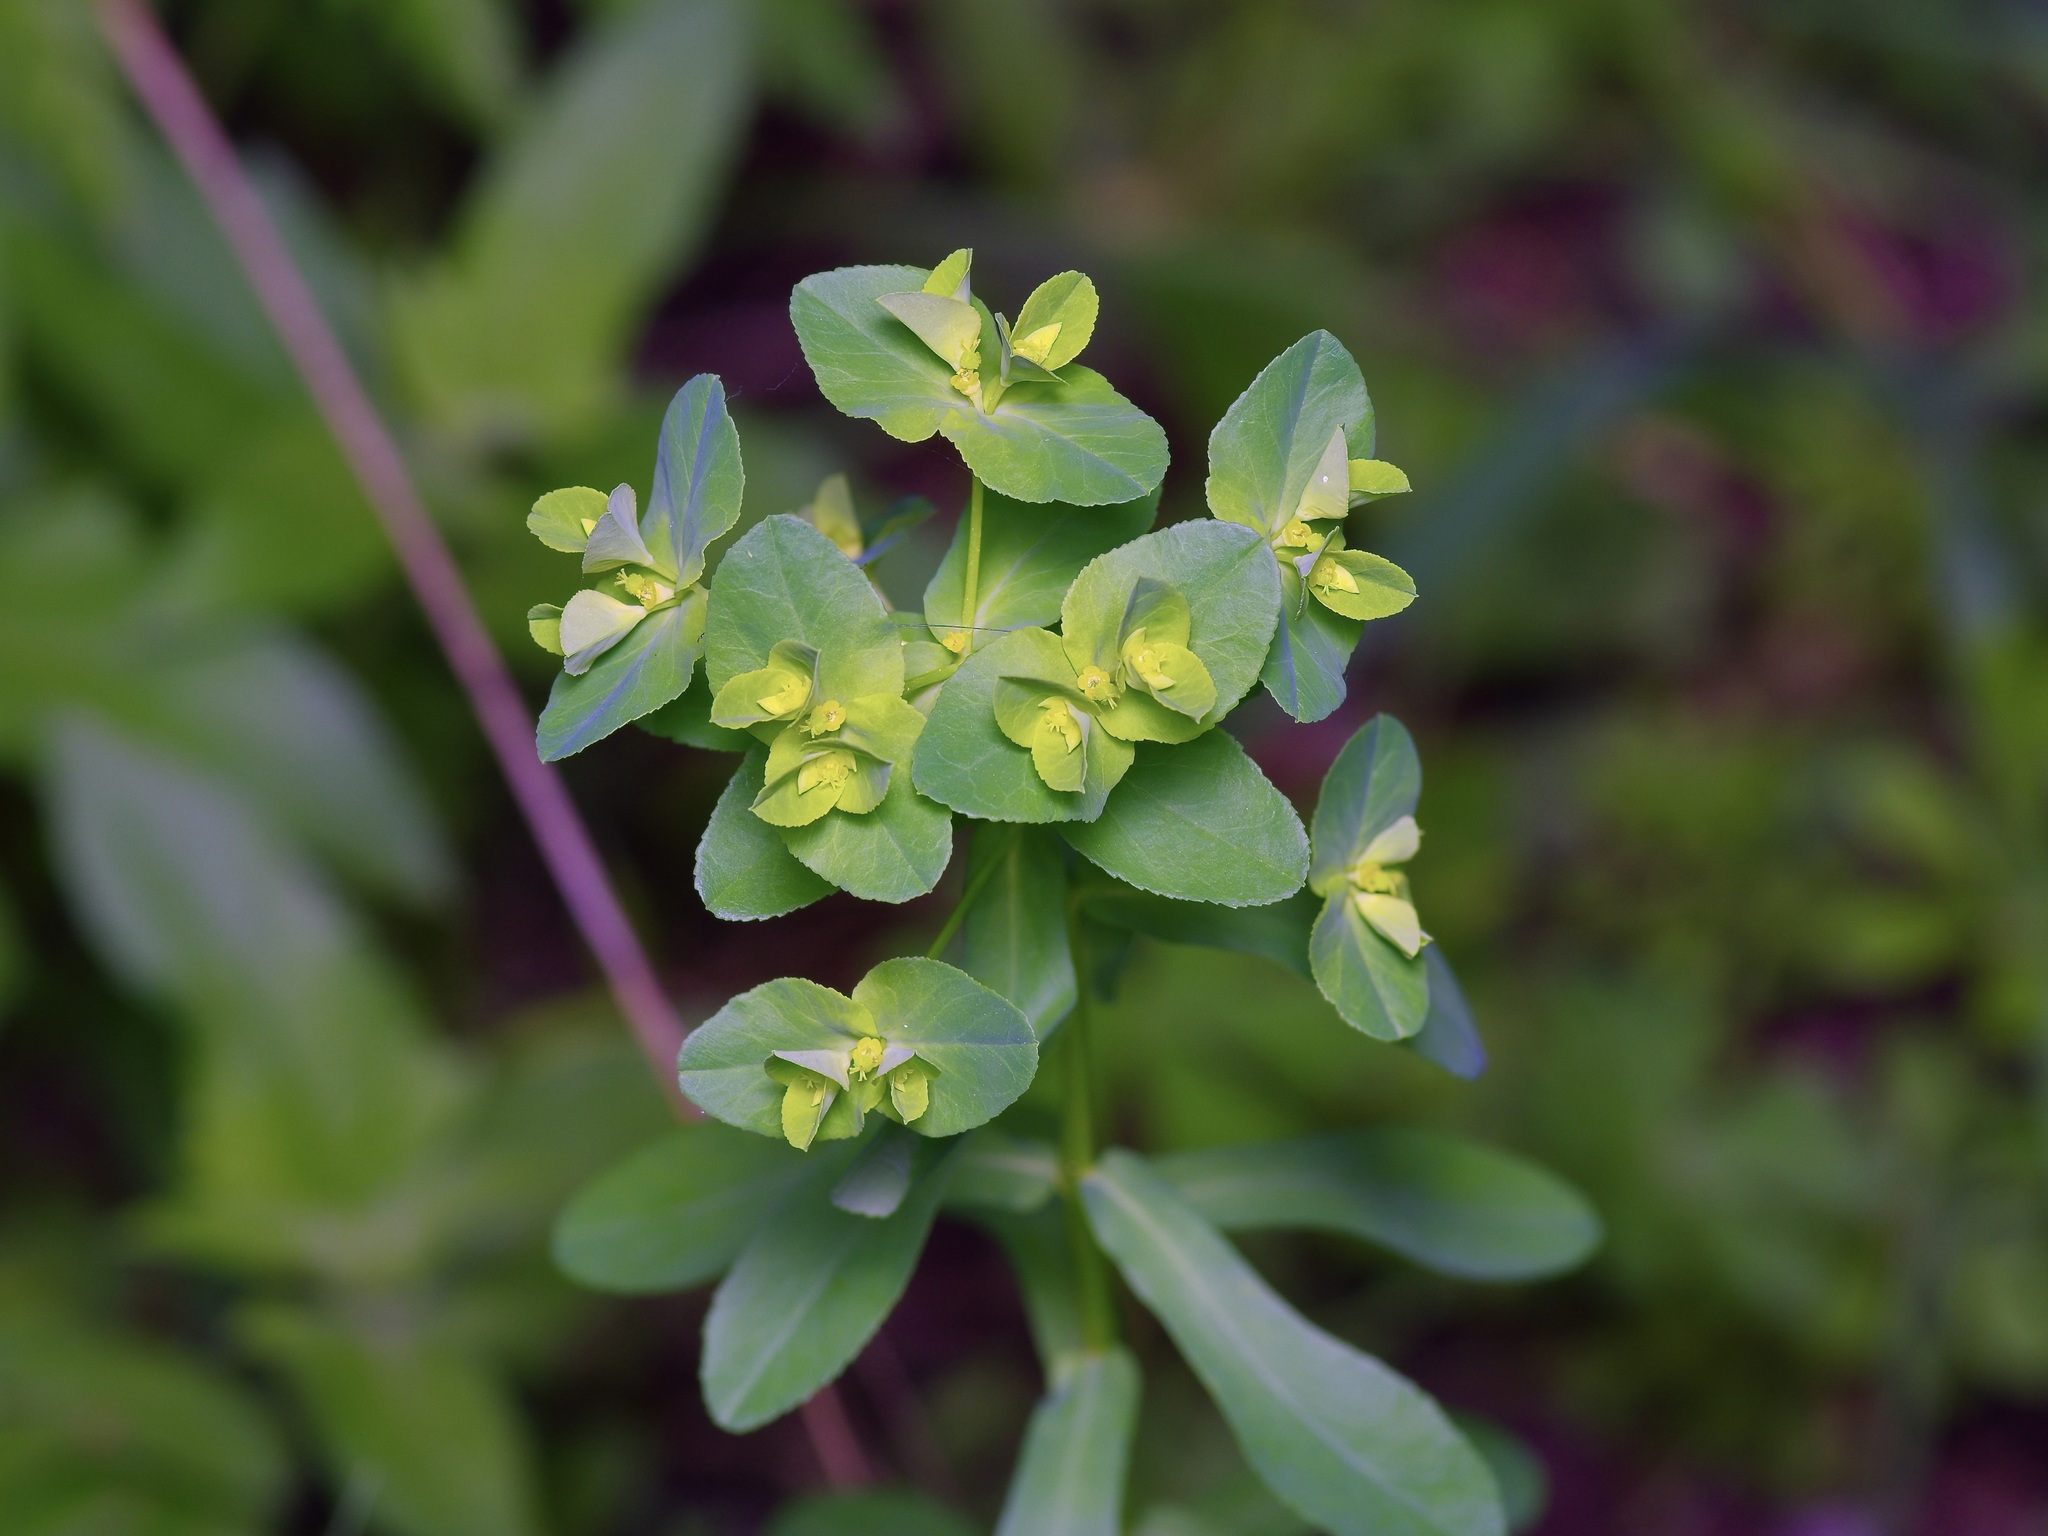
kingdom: Plantae
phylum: Tracheophyta
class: Magnoliopsida
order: Malpighiales
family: Euphorbiaceae
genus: Euphorbia
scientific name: Euphorbia spathulata
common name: Blunt spurge
